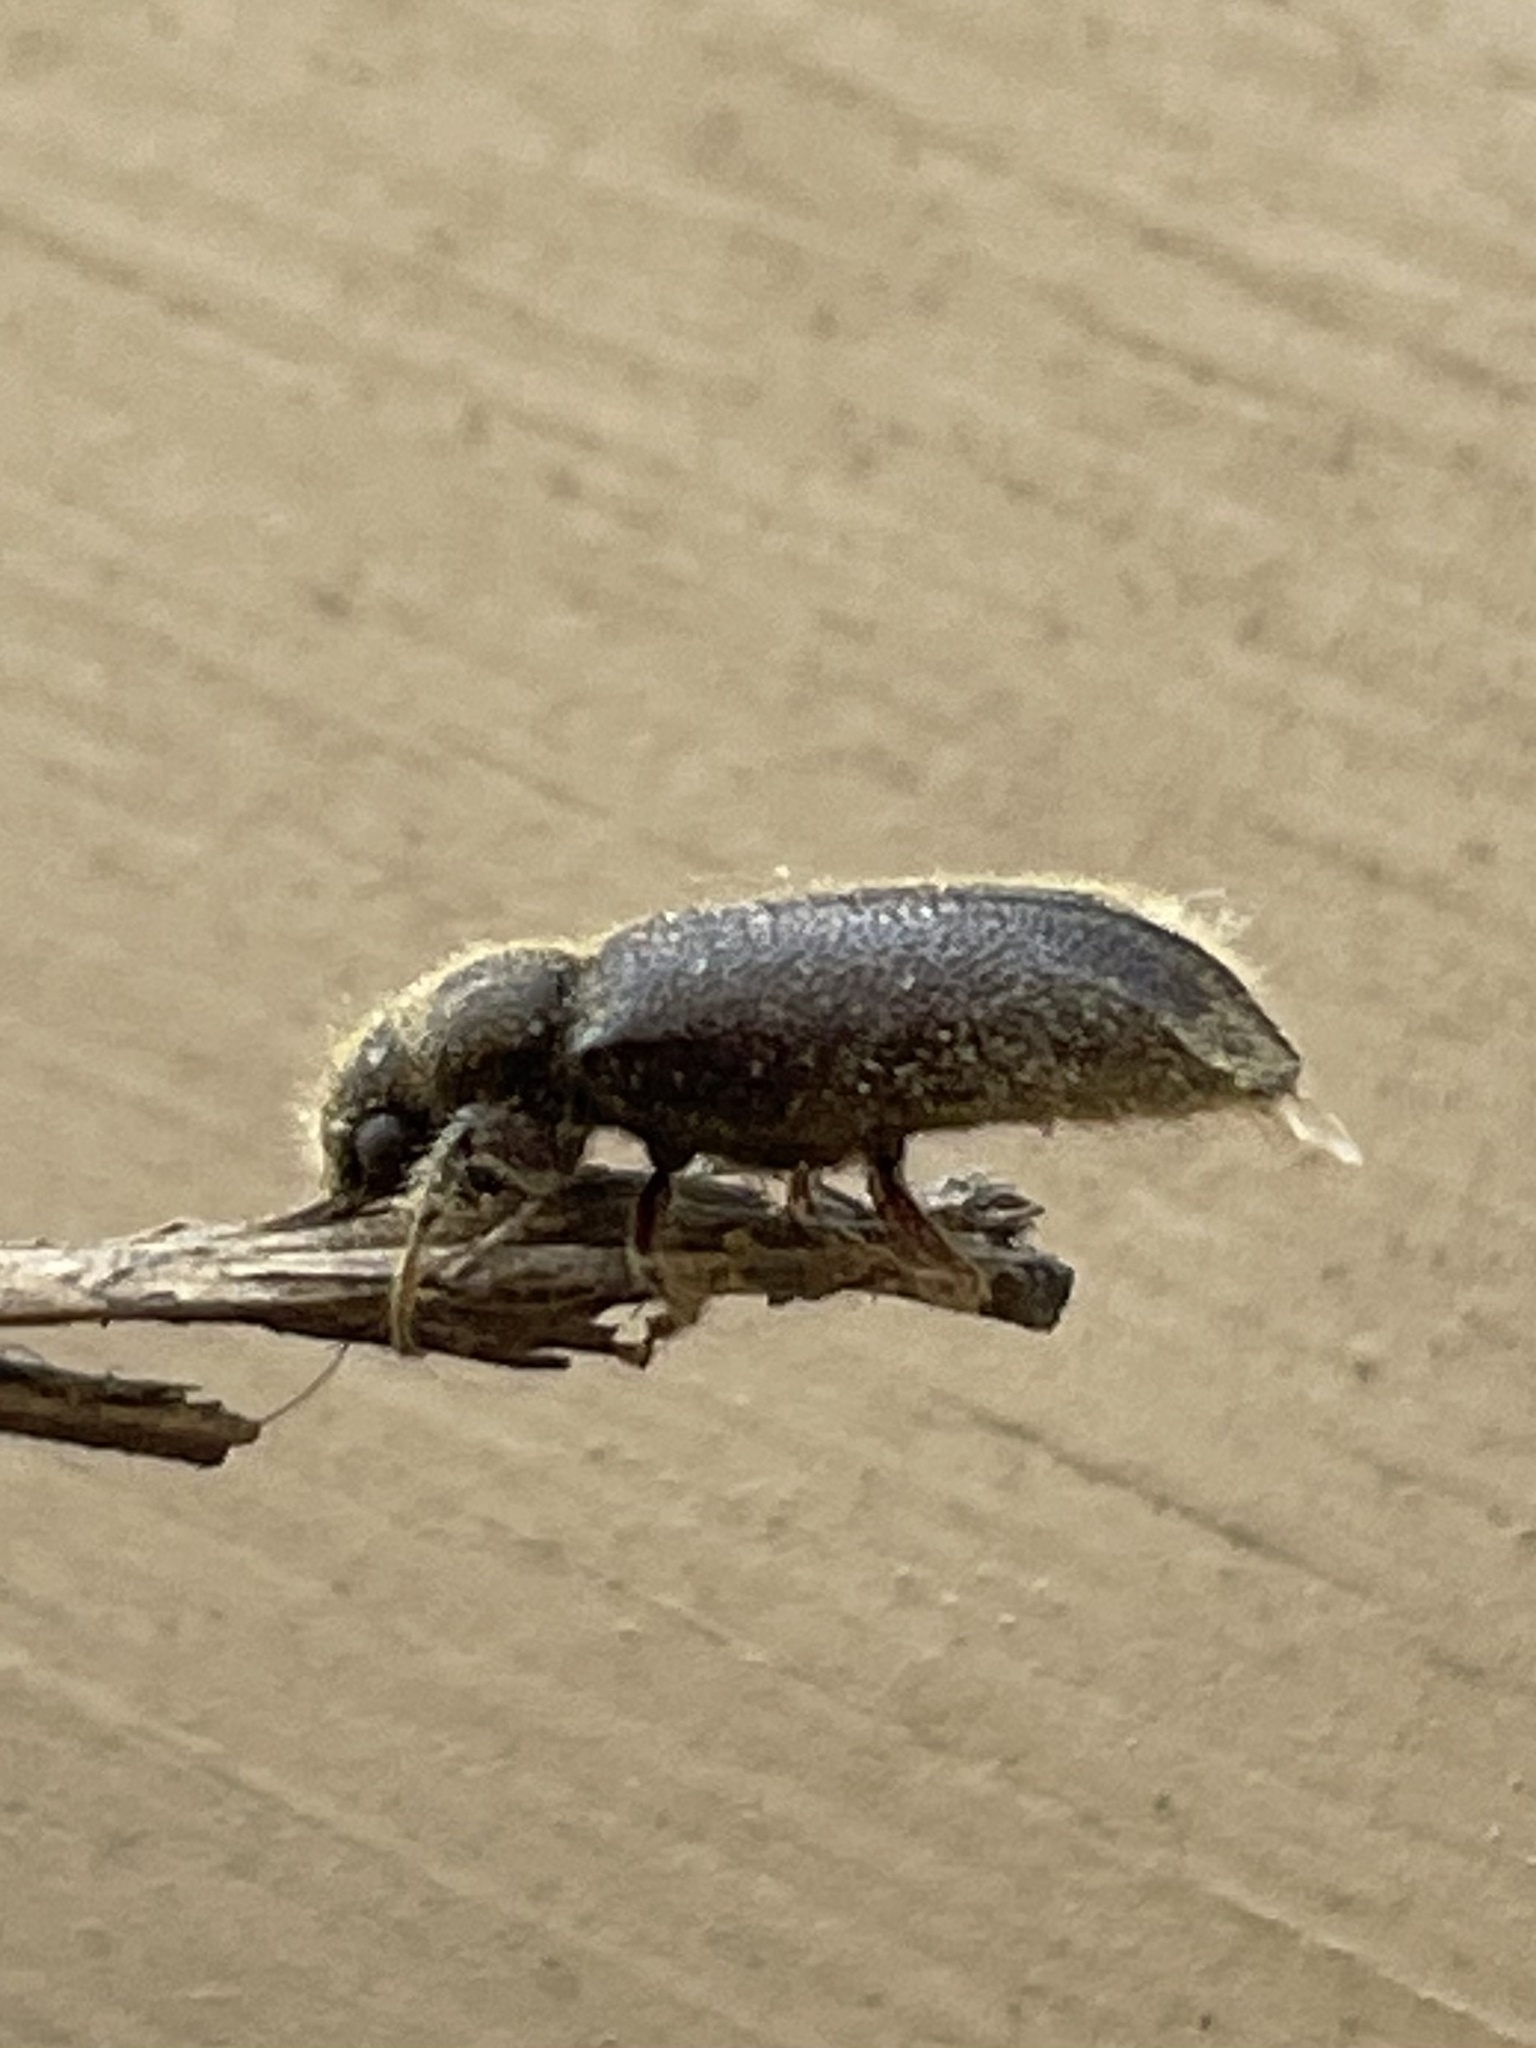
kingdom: Animalia
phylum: Arthropoda
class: Insecta
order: Coleoptera
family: Bostrichidae
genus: Melalgus
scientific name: Melalgus plicatus
